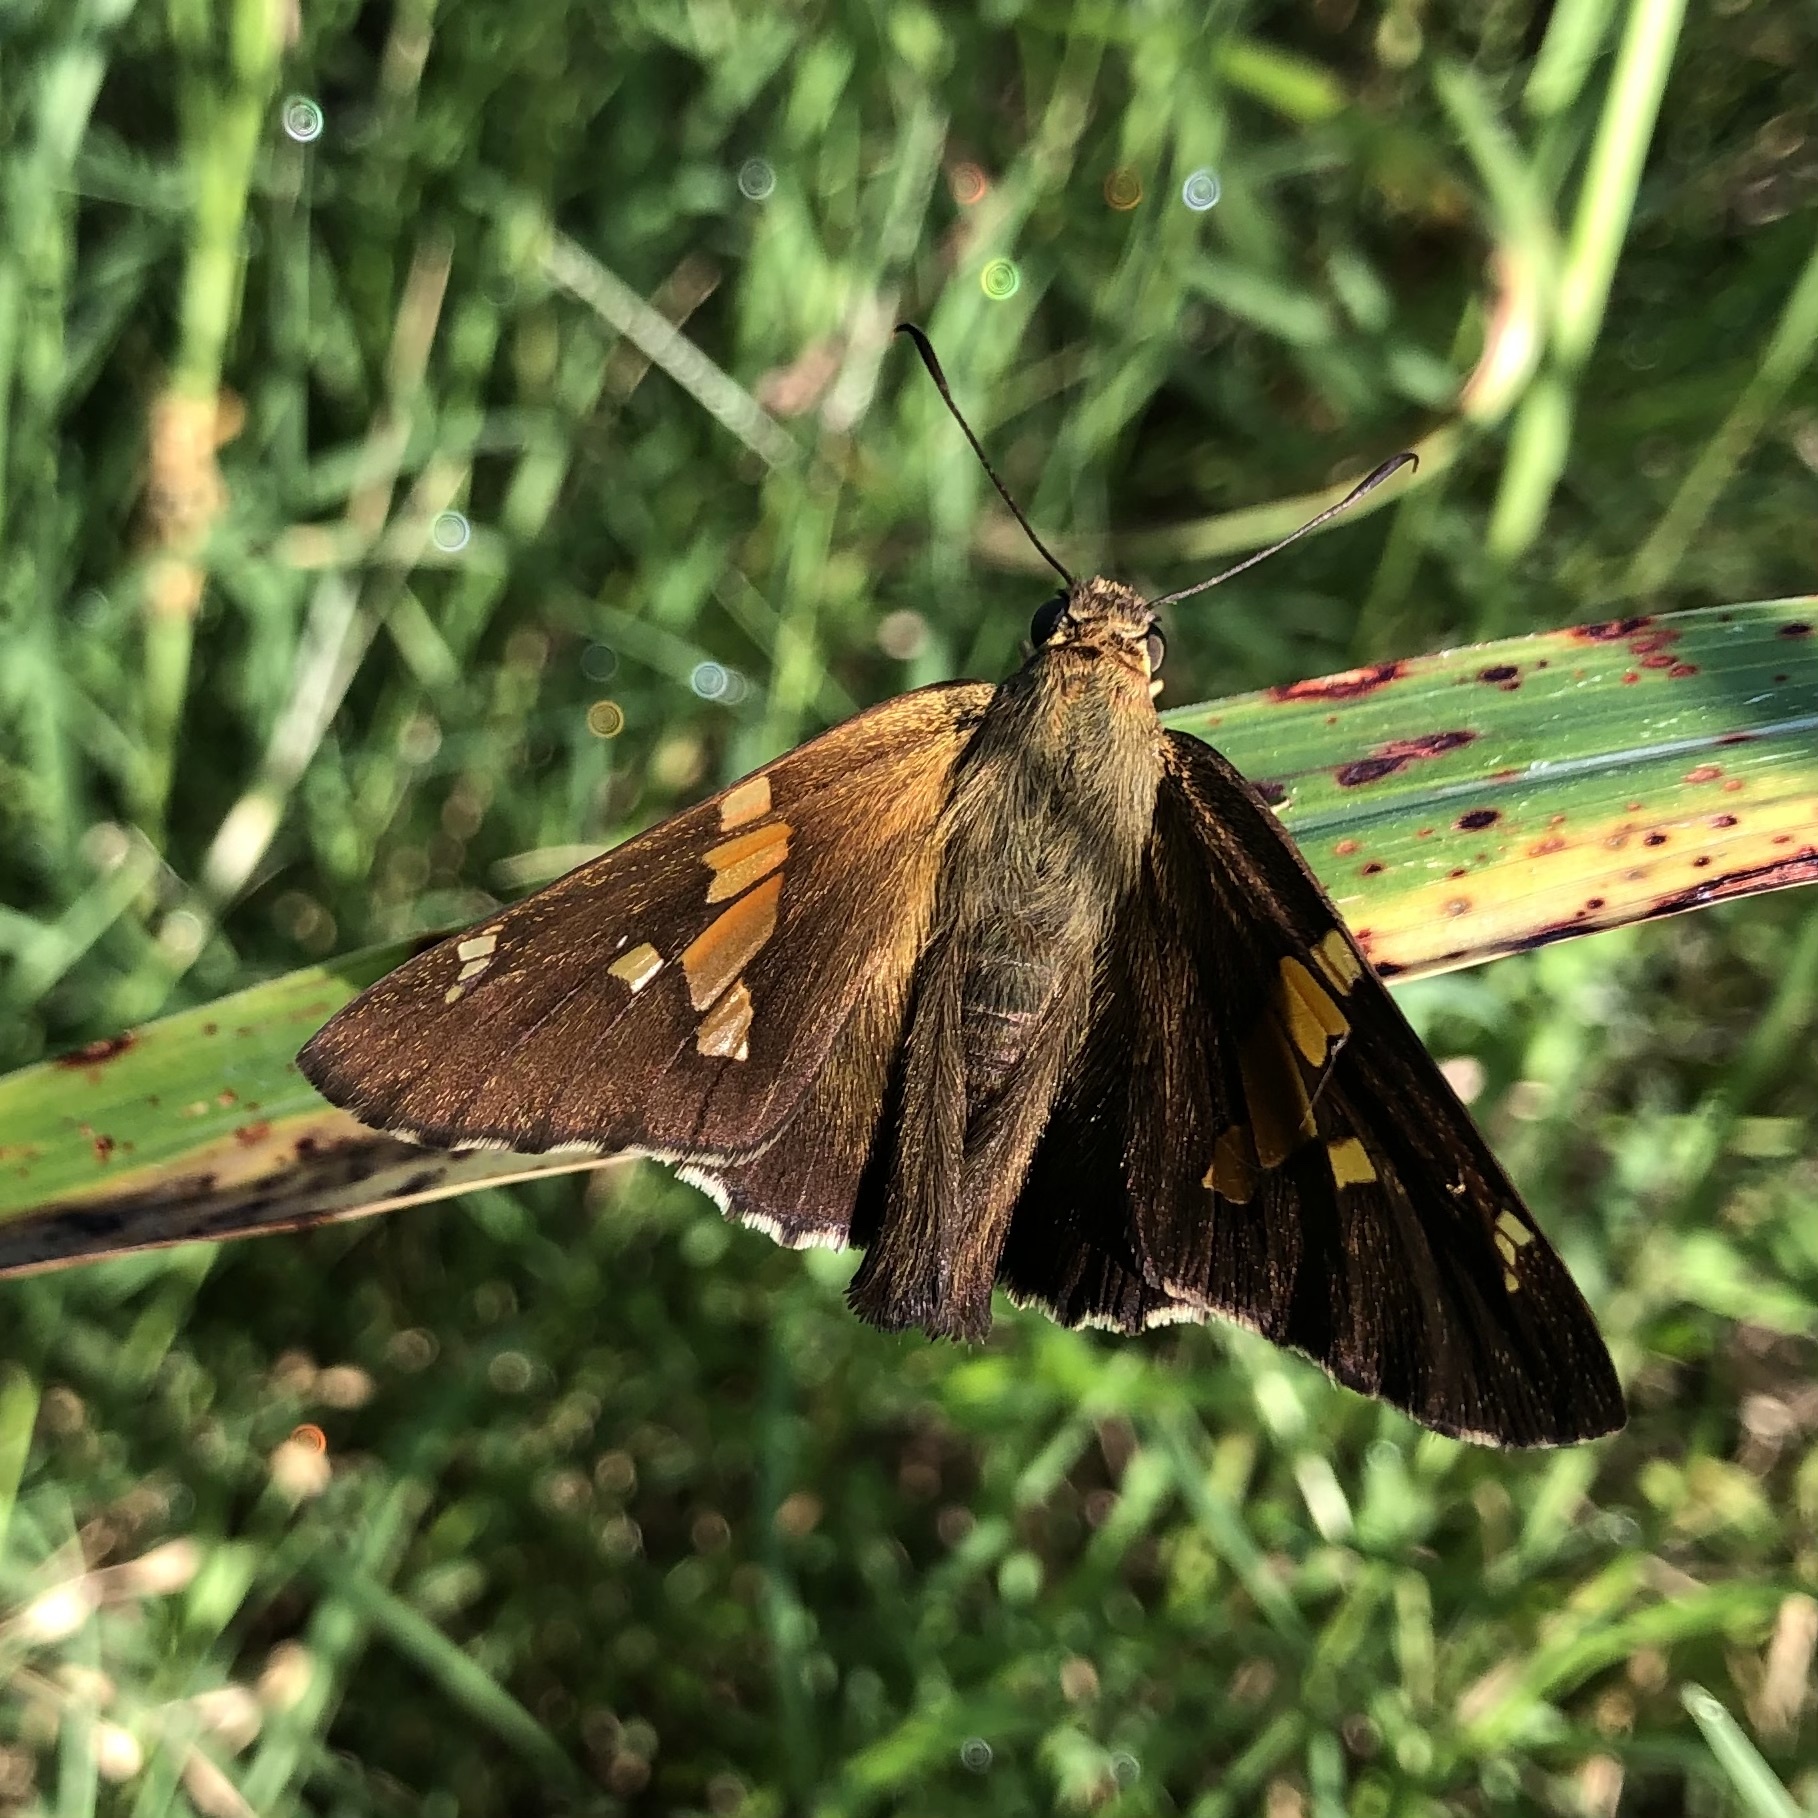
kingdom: Animalia
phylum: Arthropoda
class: Insecta
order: Lepidoptera
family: Hesperiidae
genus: Epargyreus
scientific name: Epargyreus clarus
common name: Silver-spotted skipper
